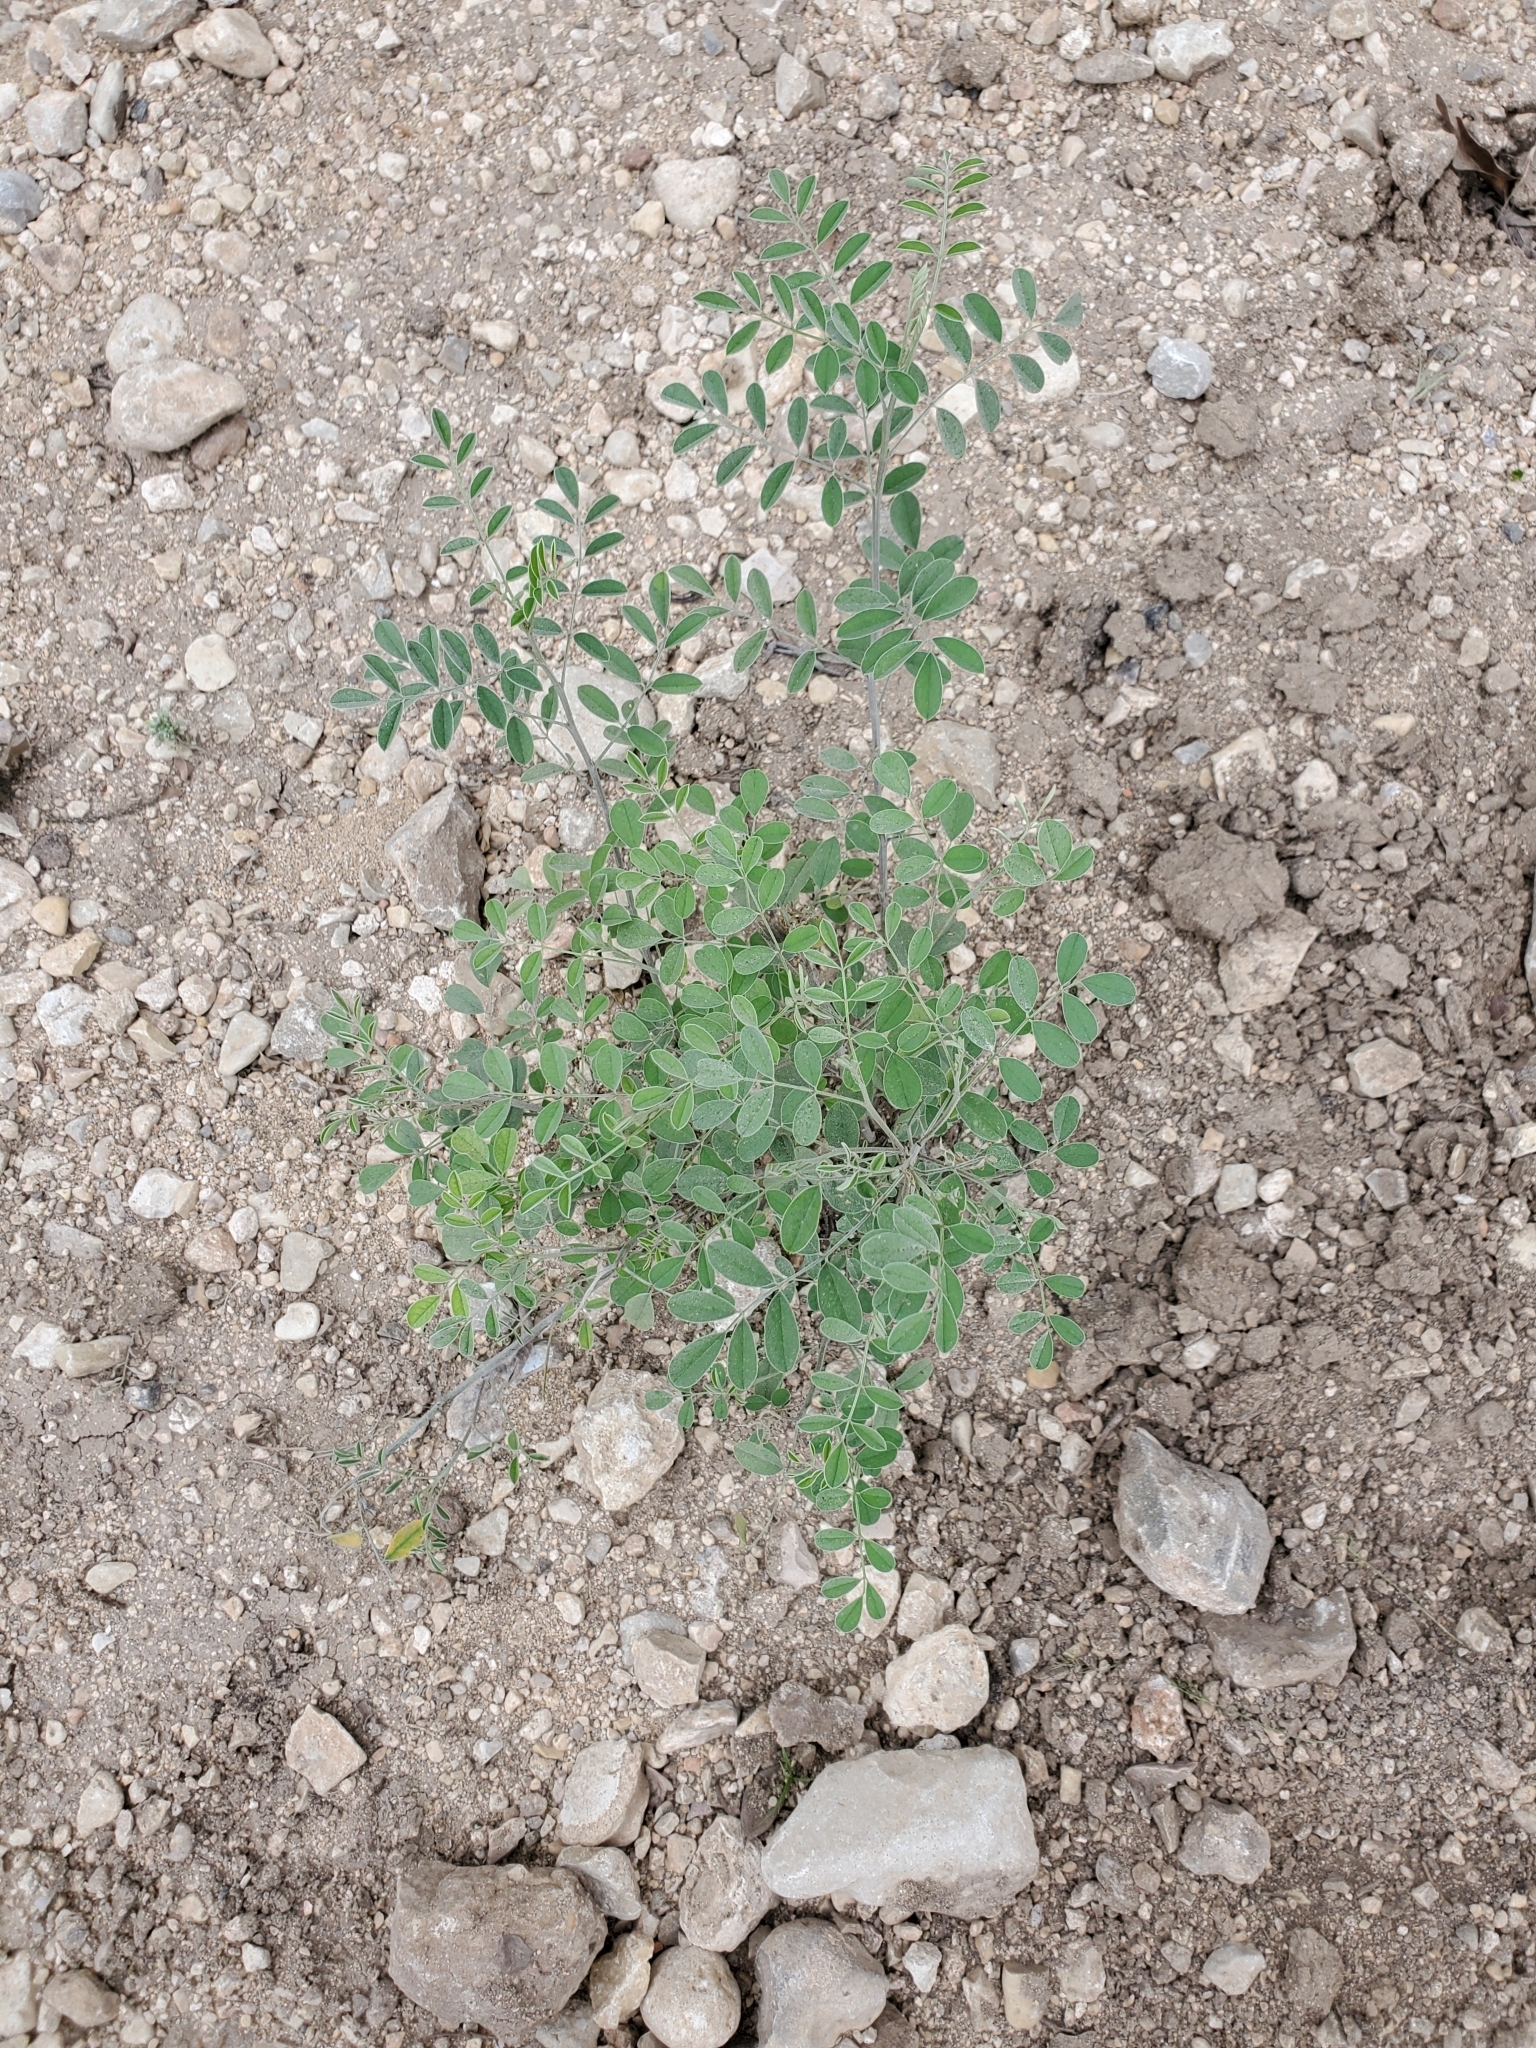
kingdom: Plantae
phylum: Tracheophyta
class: Magnoliopsida
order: Fabales
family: Fabaceae
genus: Indigofera
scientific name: Indigofera lindheimeriana
